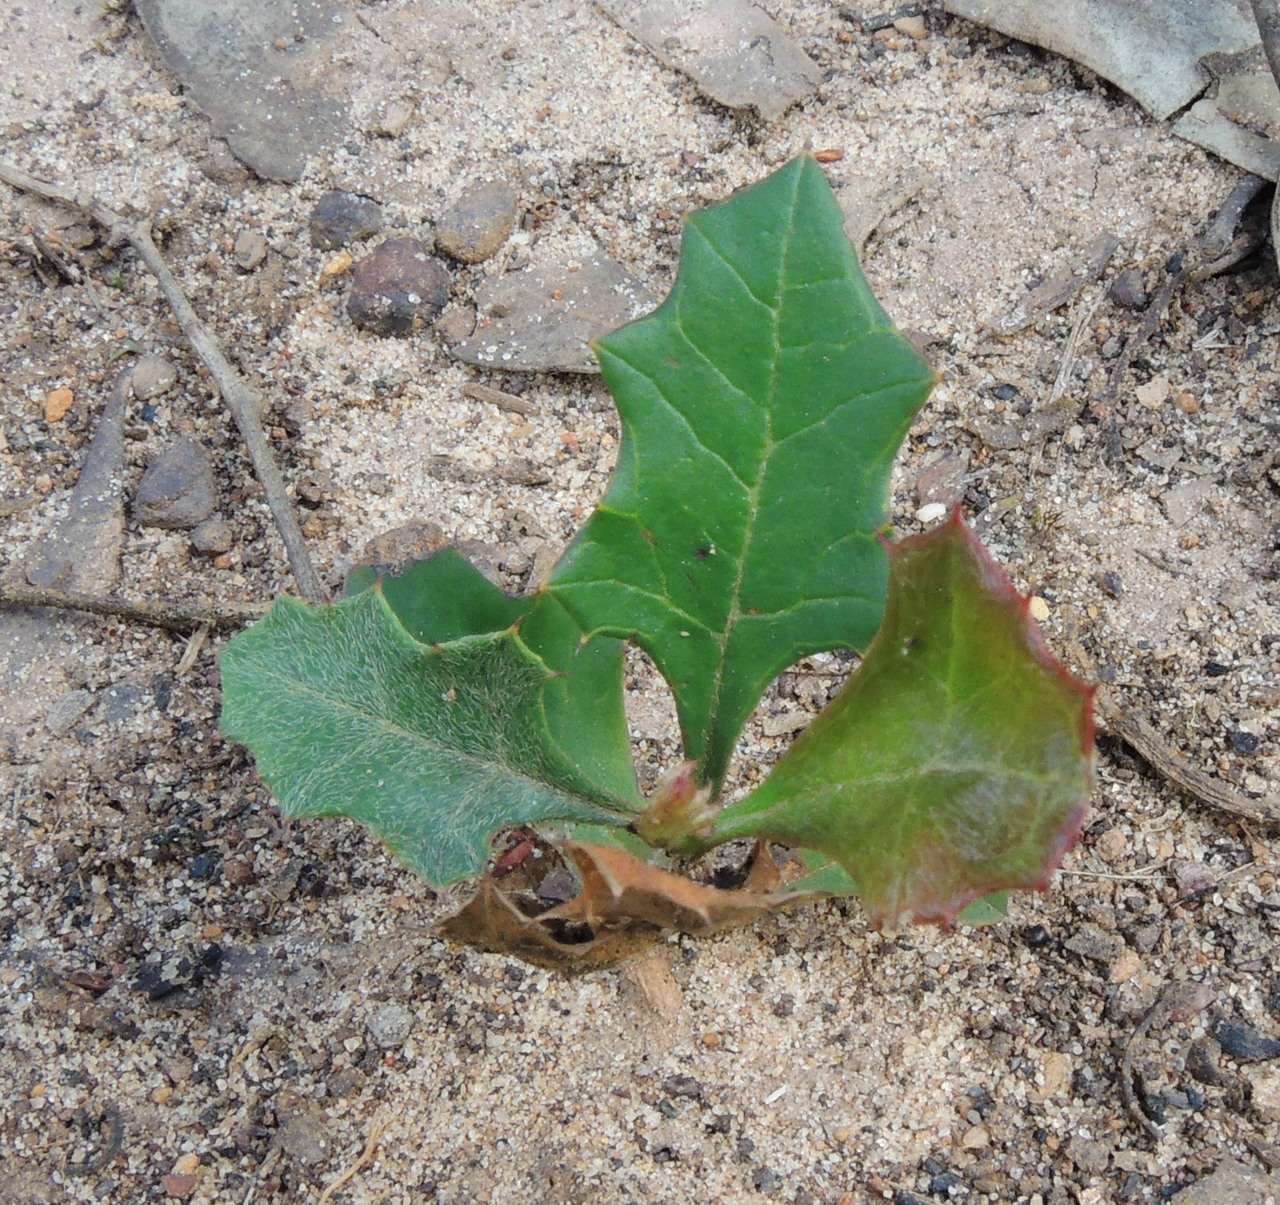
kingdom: Plantae
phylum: Tracheophyta
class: Magnoliopsida
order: Proteales
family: Proteaceae
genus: Grevillea
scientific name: Grevillea steiglitziana
